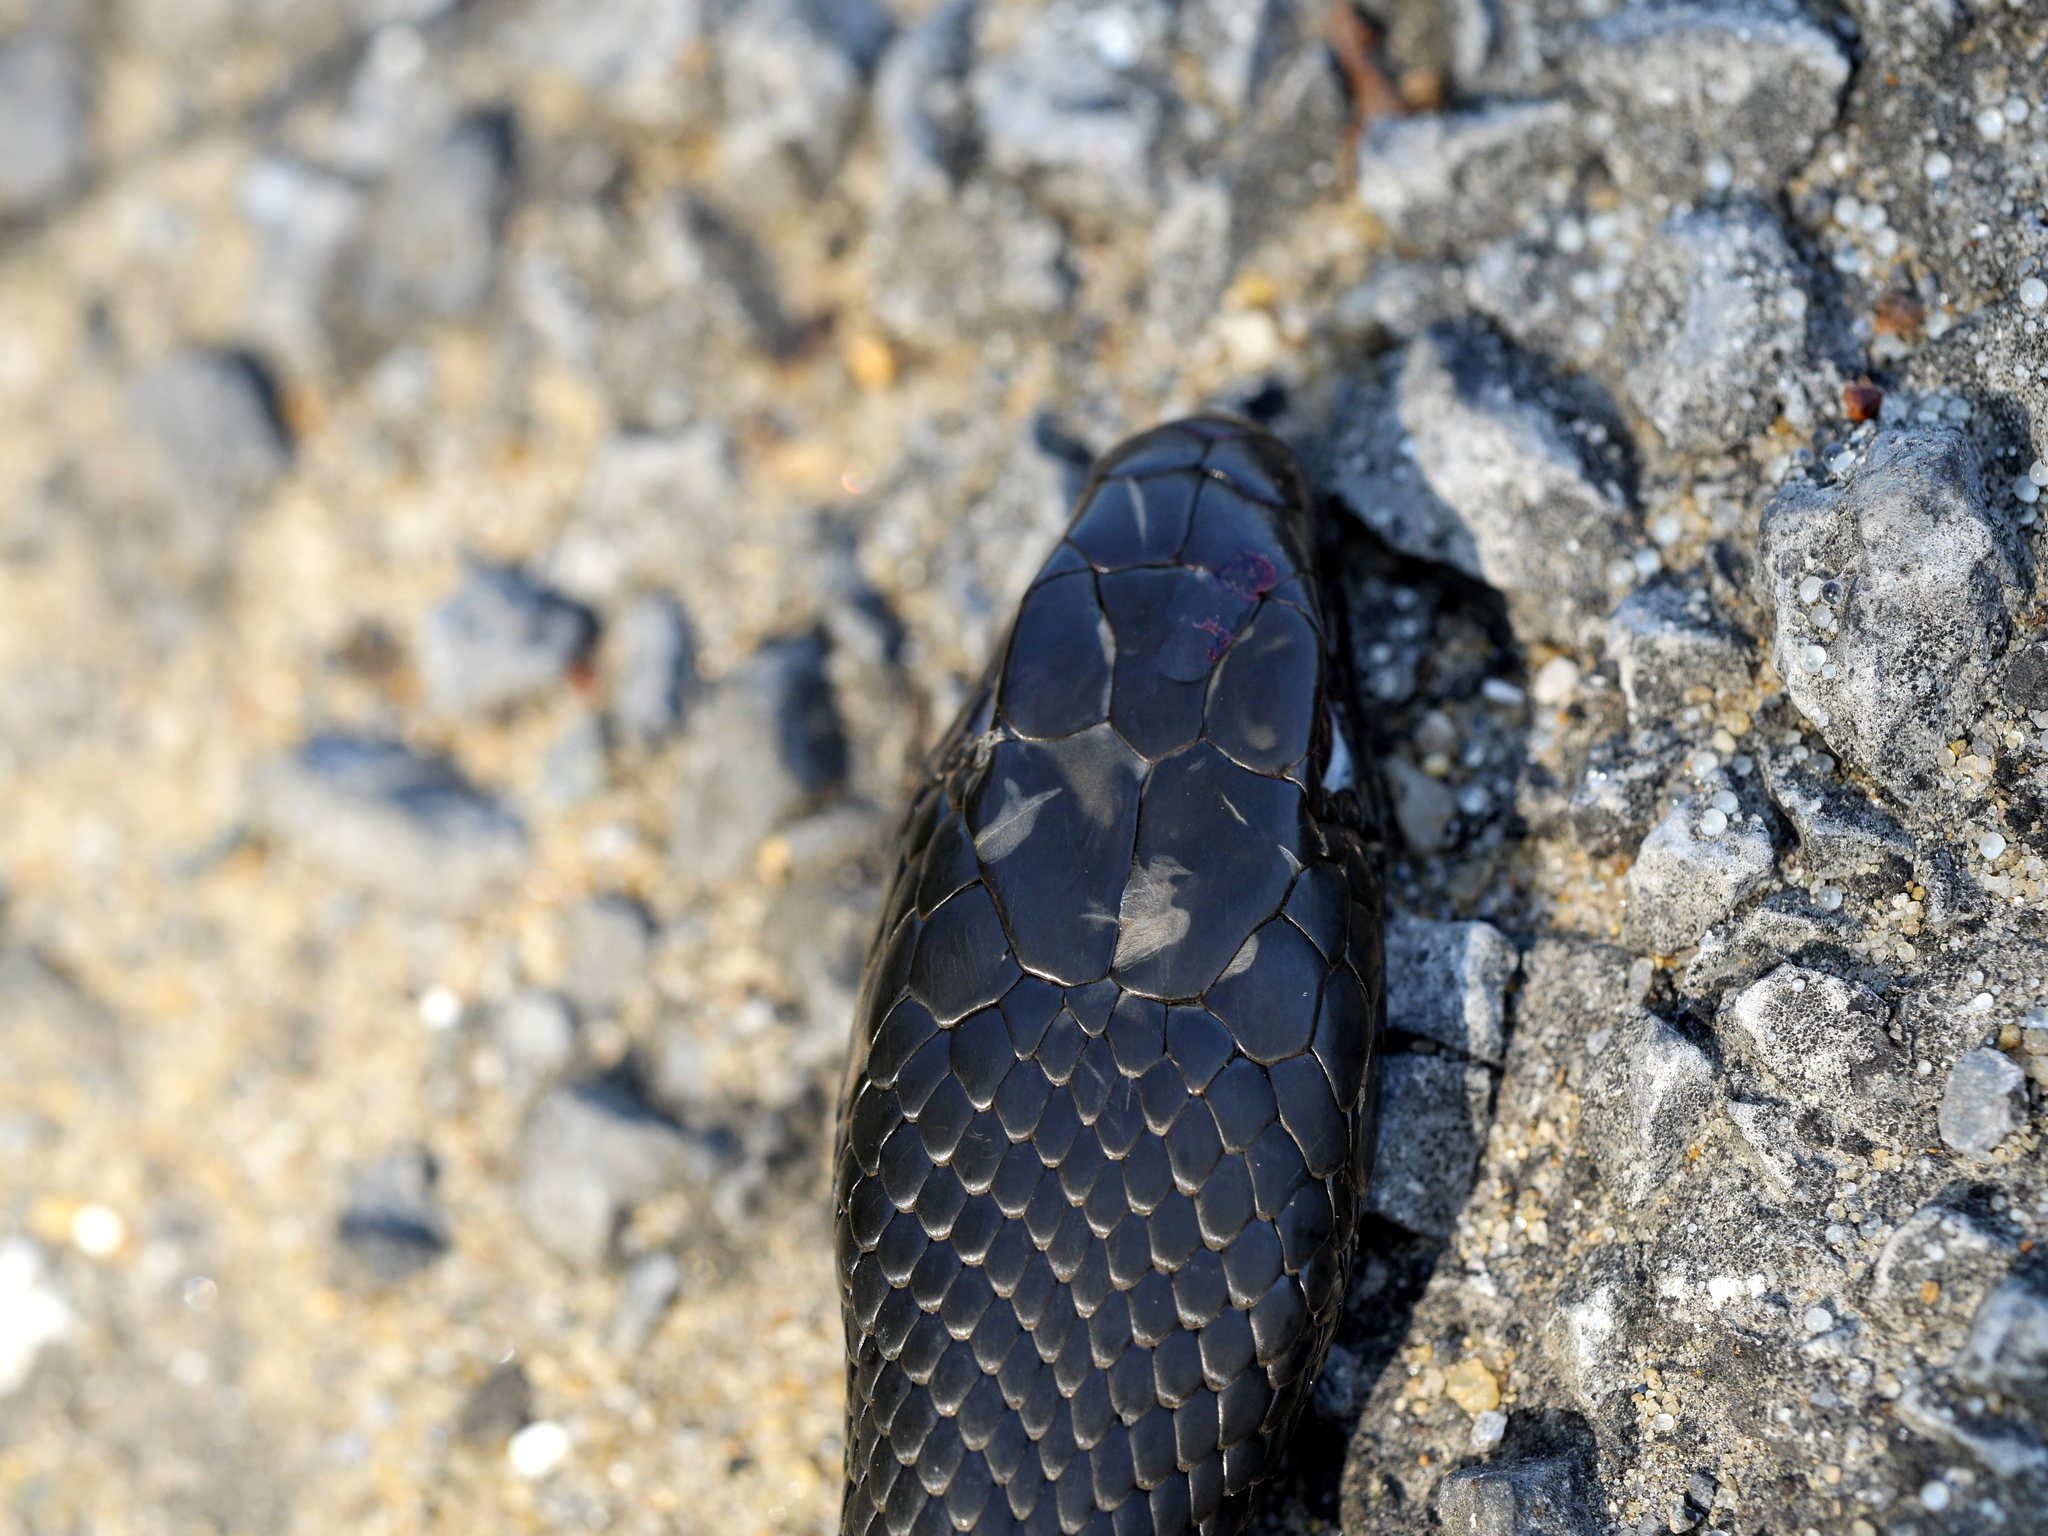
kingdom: Animalia
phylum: Chordata
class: Squamata
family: Colubridae
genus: Coluber
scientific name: Coluber constrictor
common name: Eastern racer
